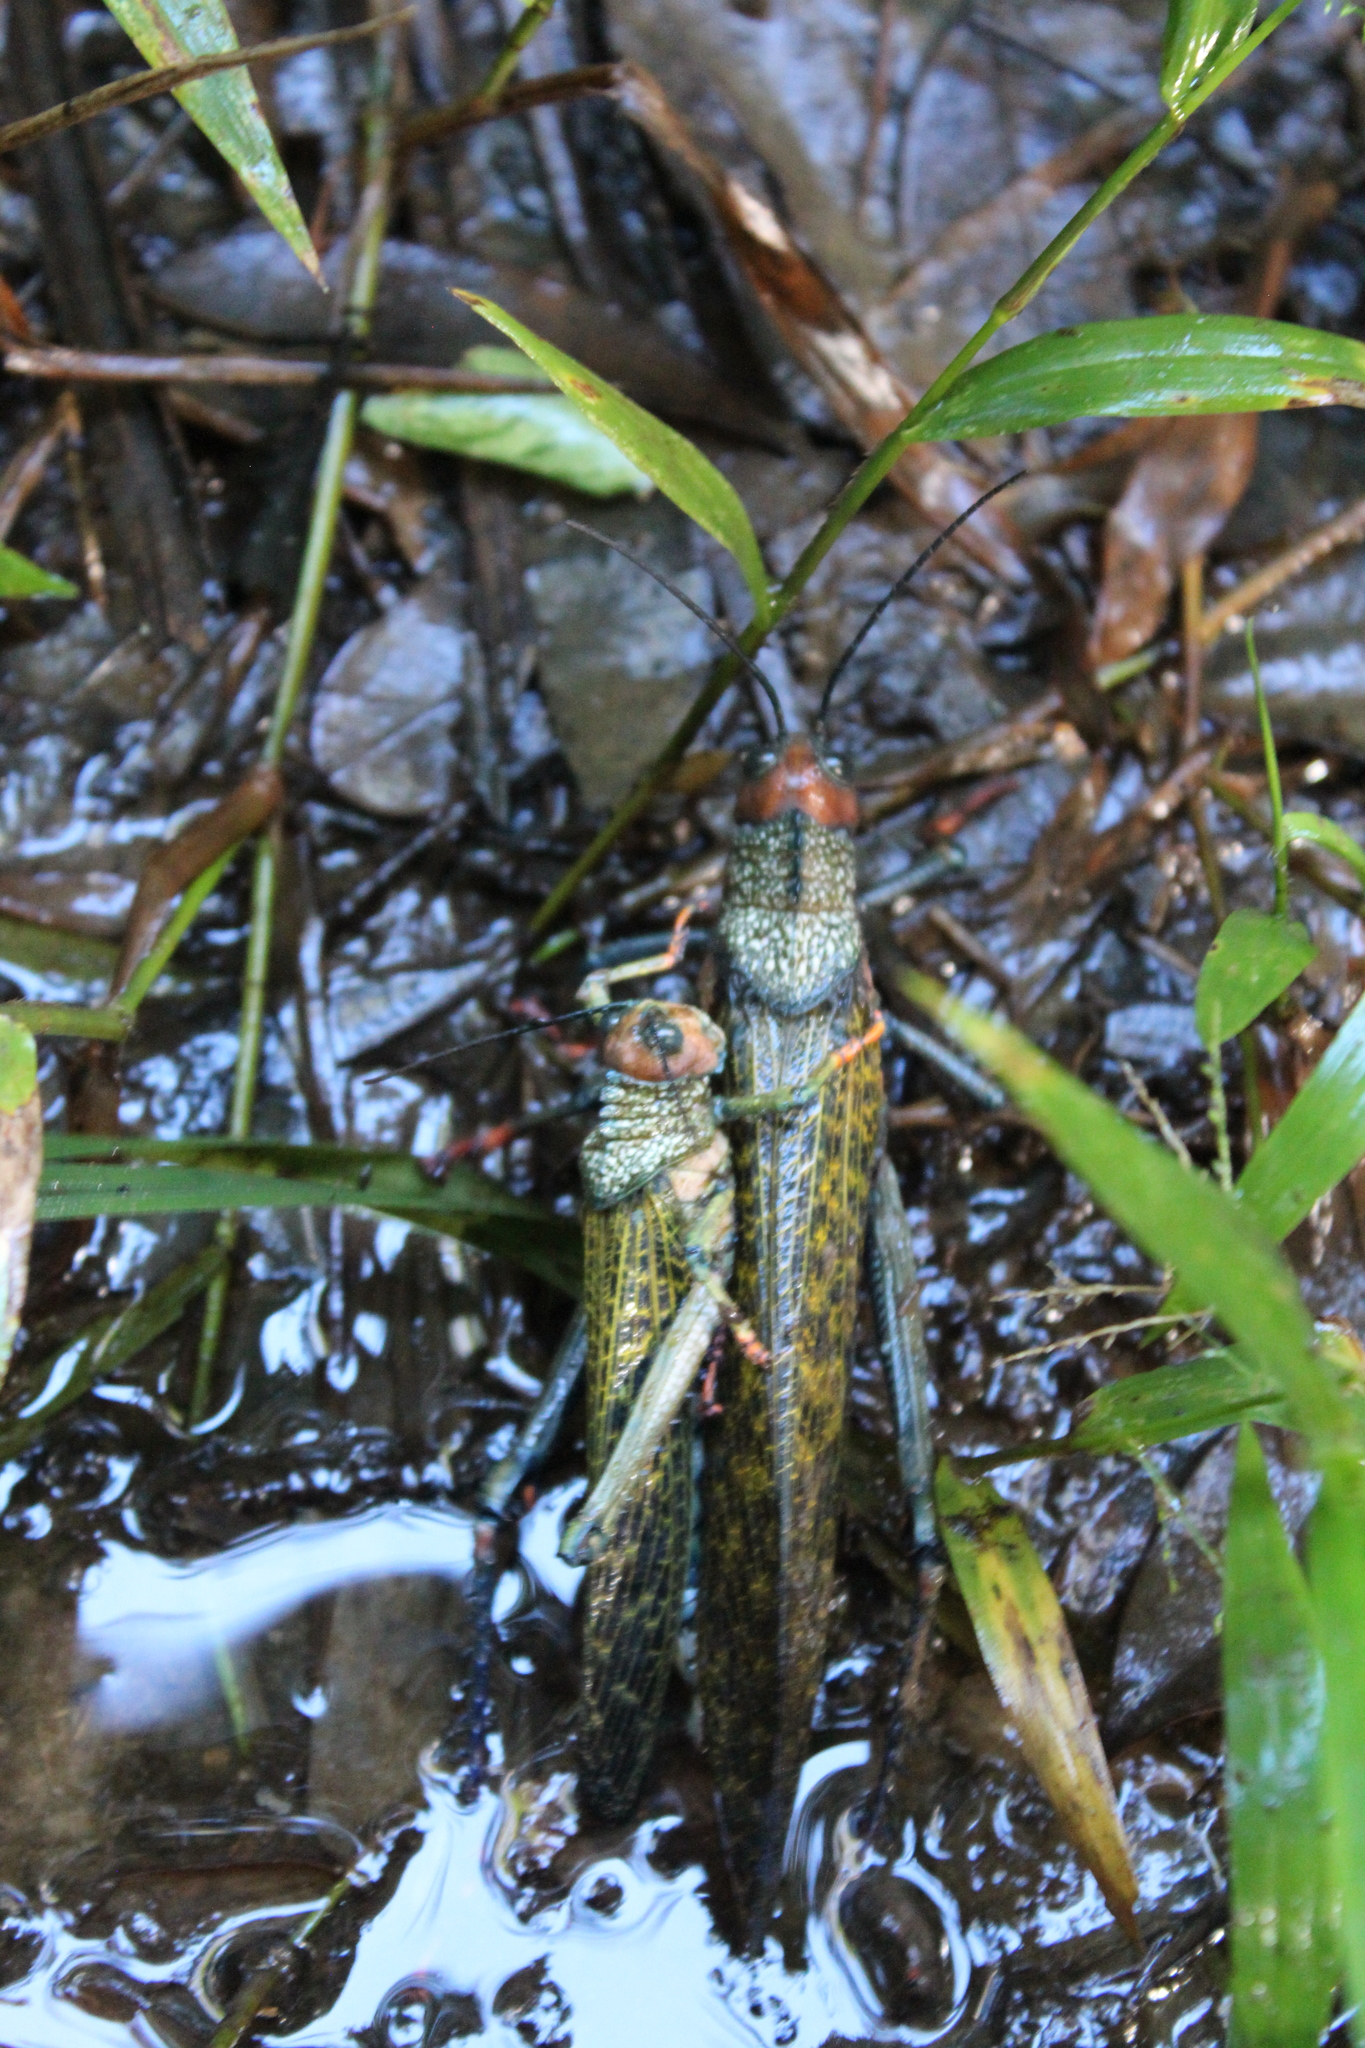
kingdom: Animalia
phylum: Arthropoda
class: Insecta
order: Orthoptera
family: Romaleidae
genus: Tropidacris
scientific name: Tropidacris cristata
